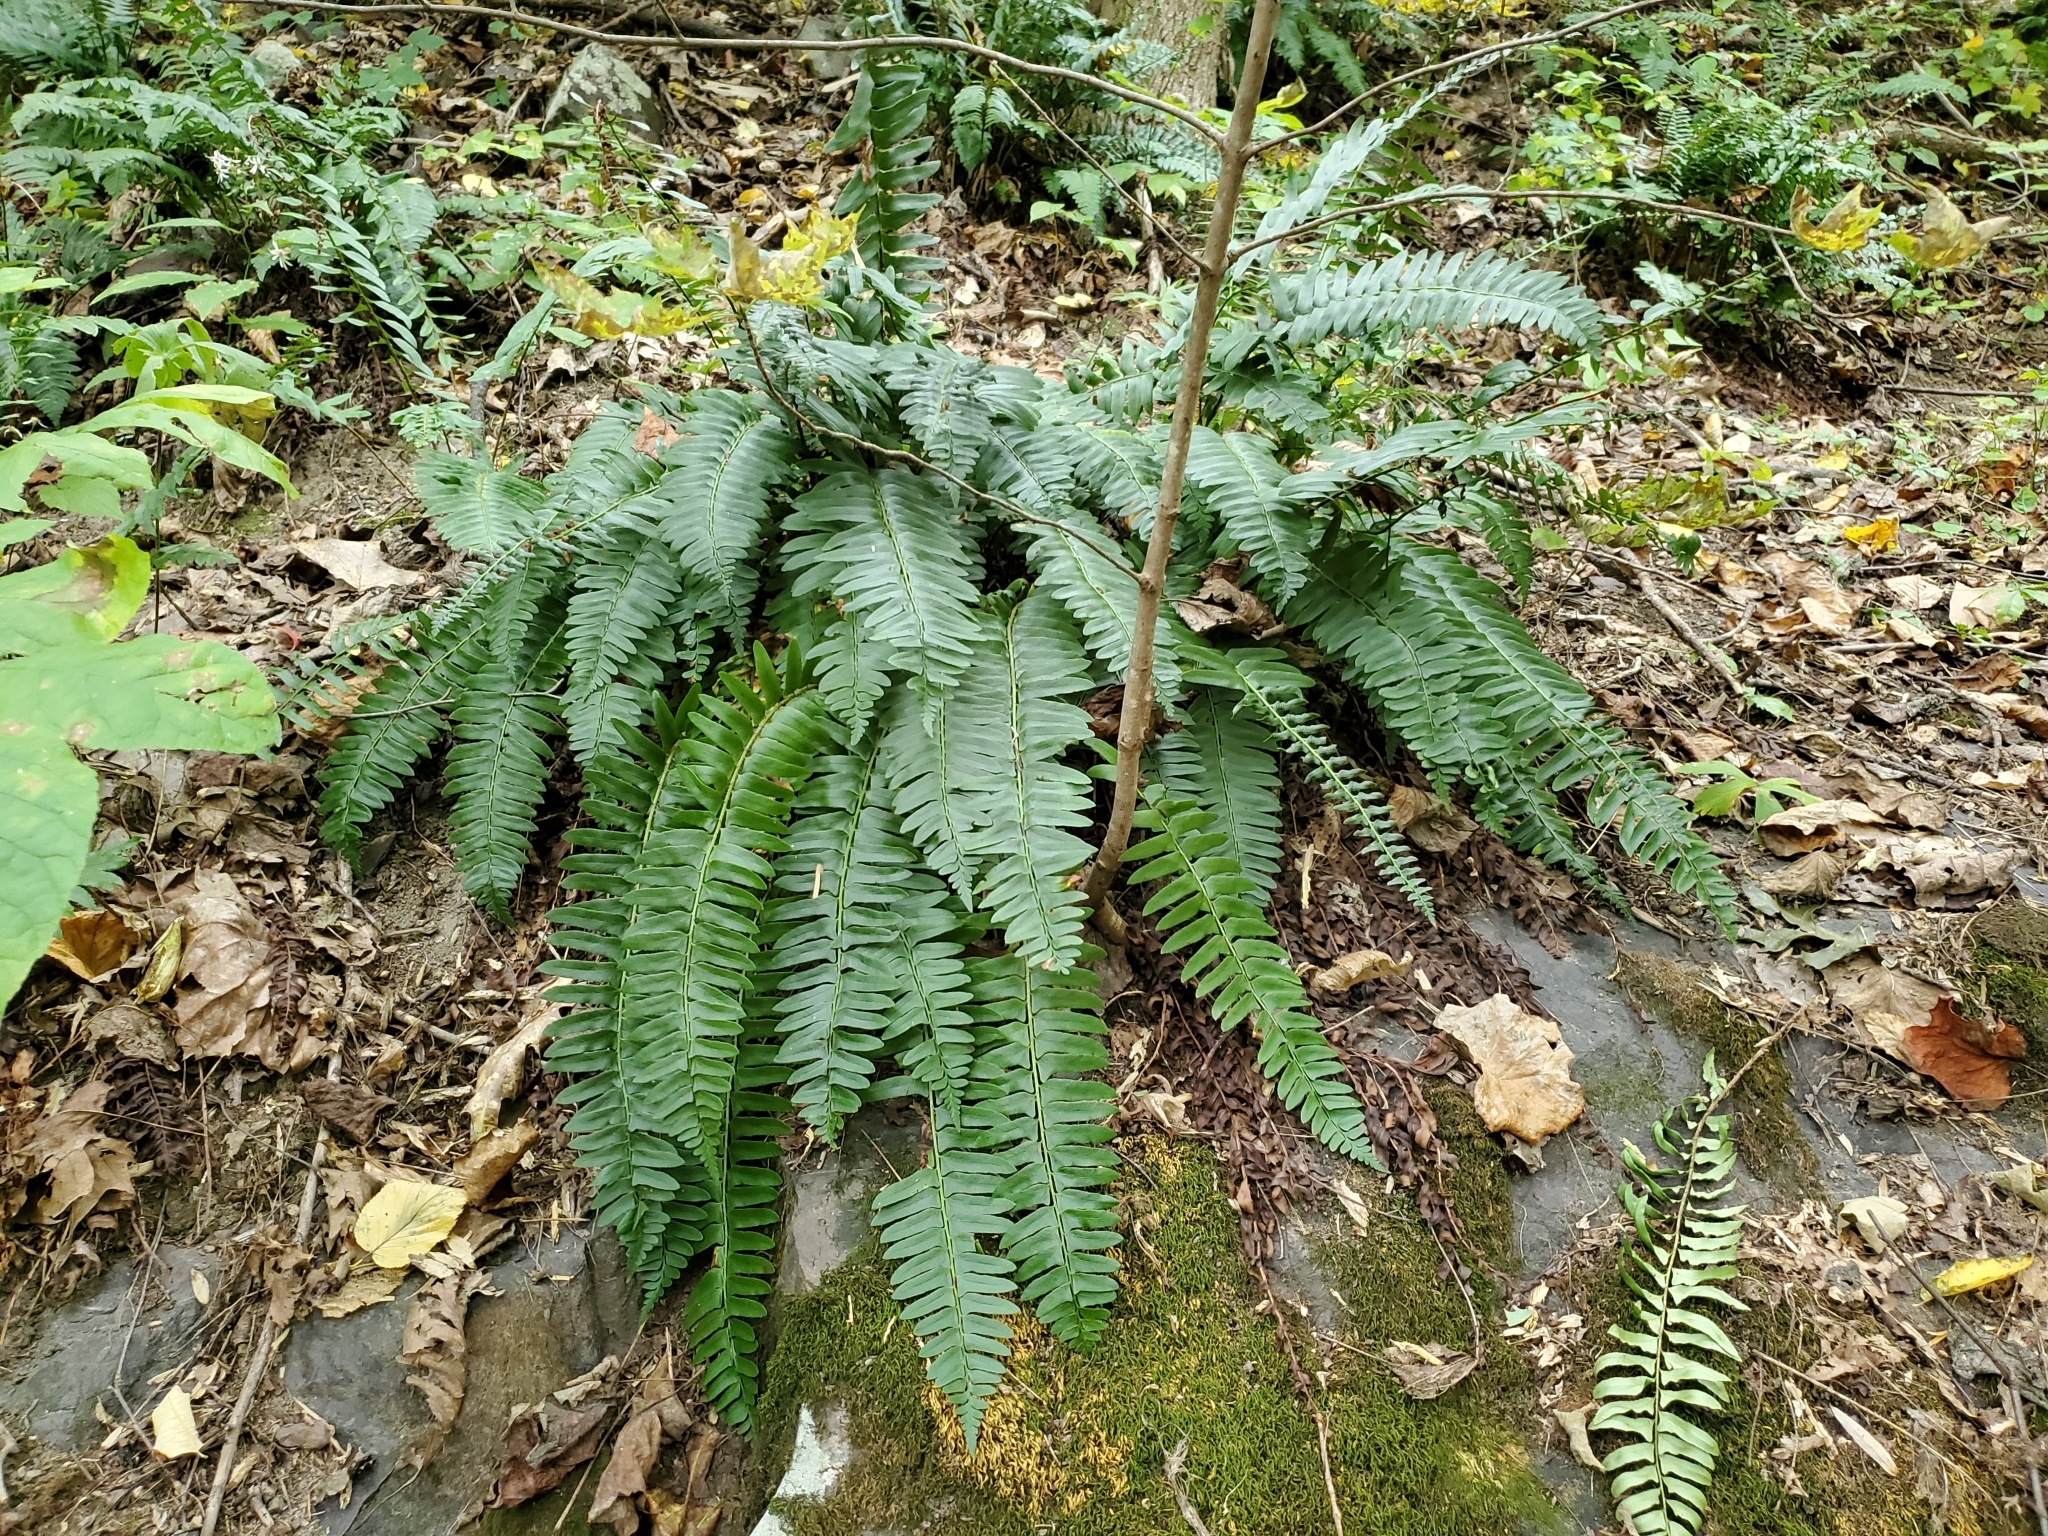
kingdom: Plantae
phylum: Tracheophyta
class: Polypodiopsida
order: Polypodiales
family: Dryopteridaceae
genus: Polystichum
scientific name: Polystichum acrostichoides
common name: Christmas fern
